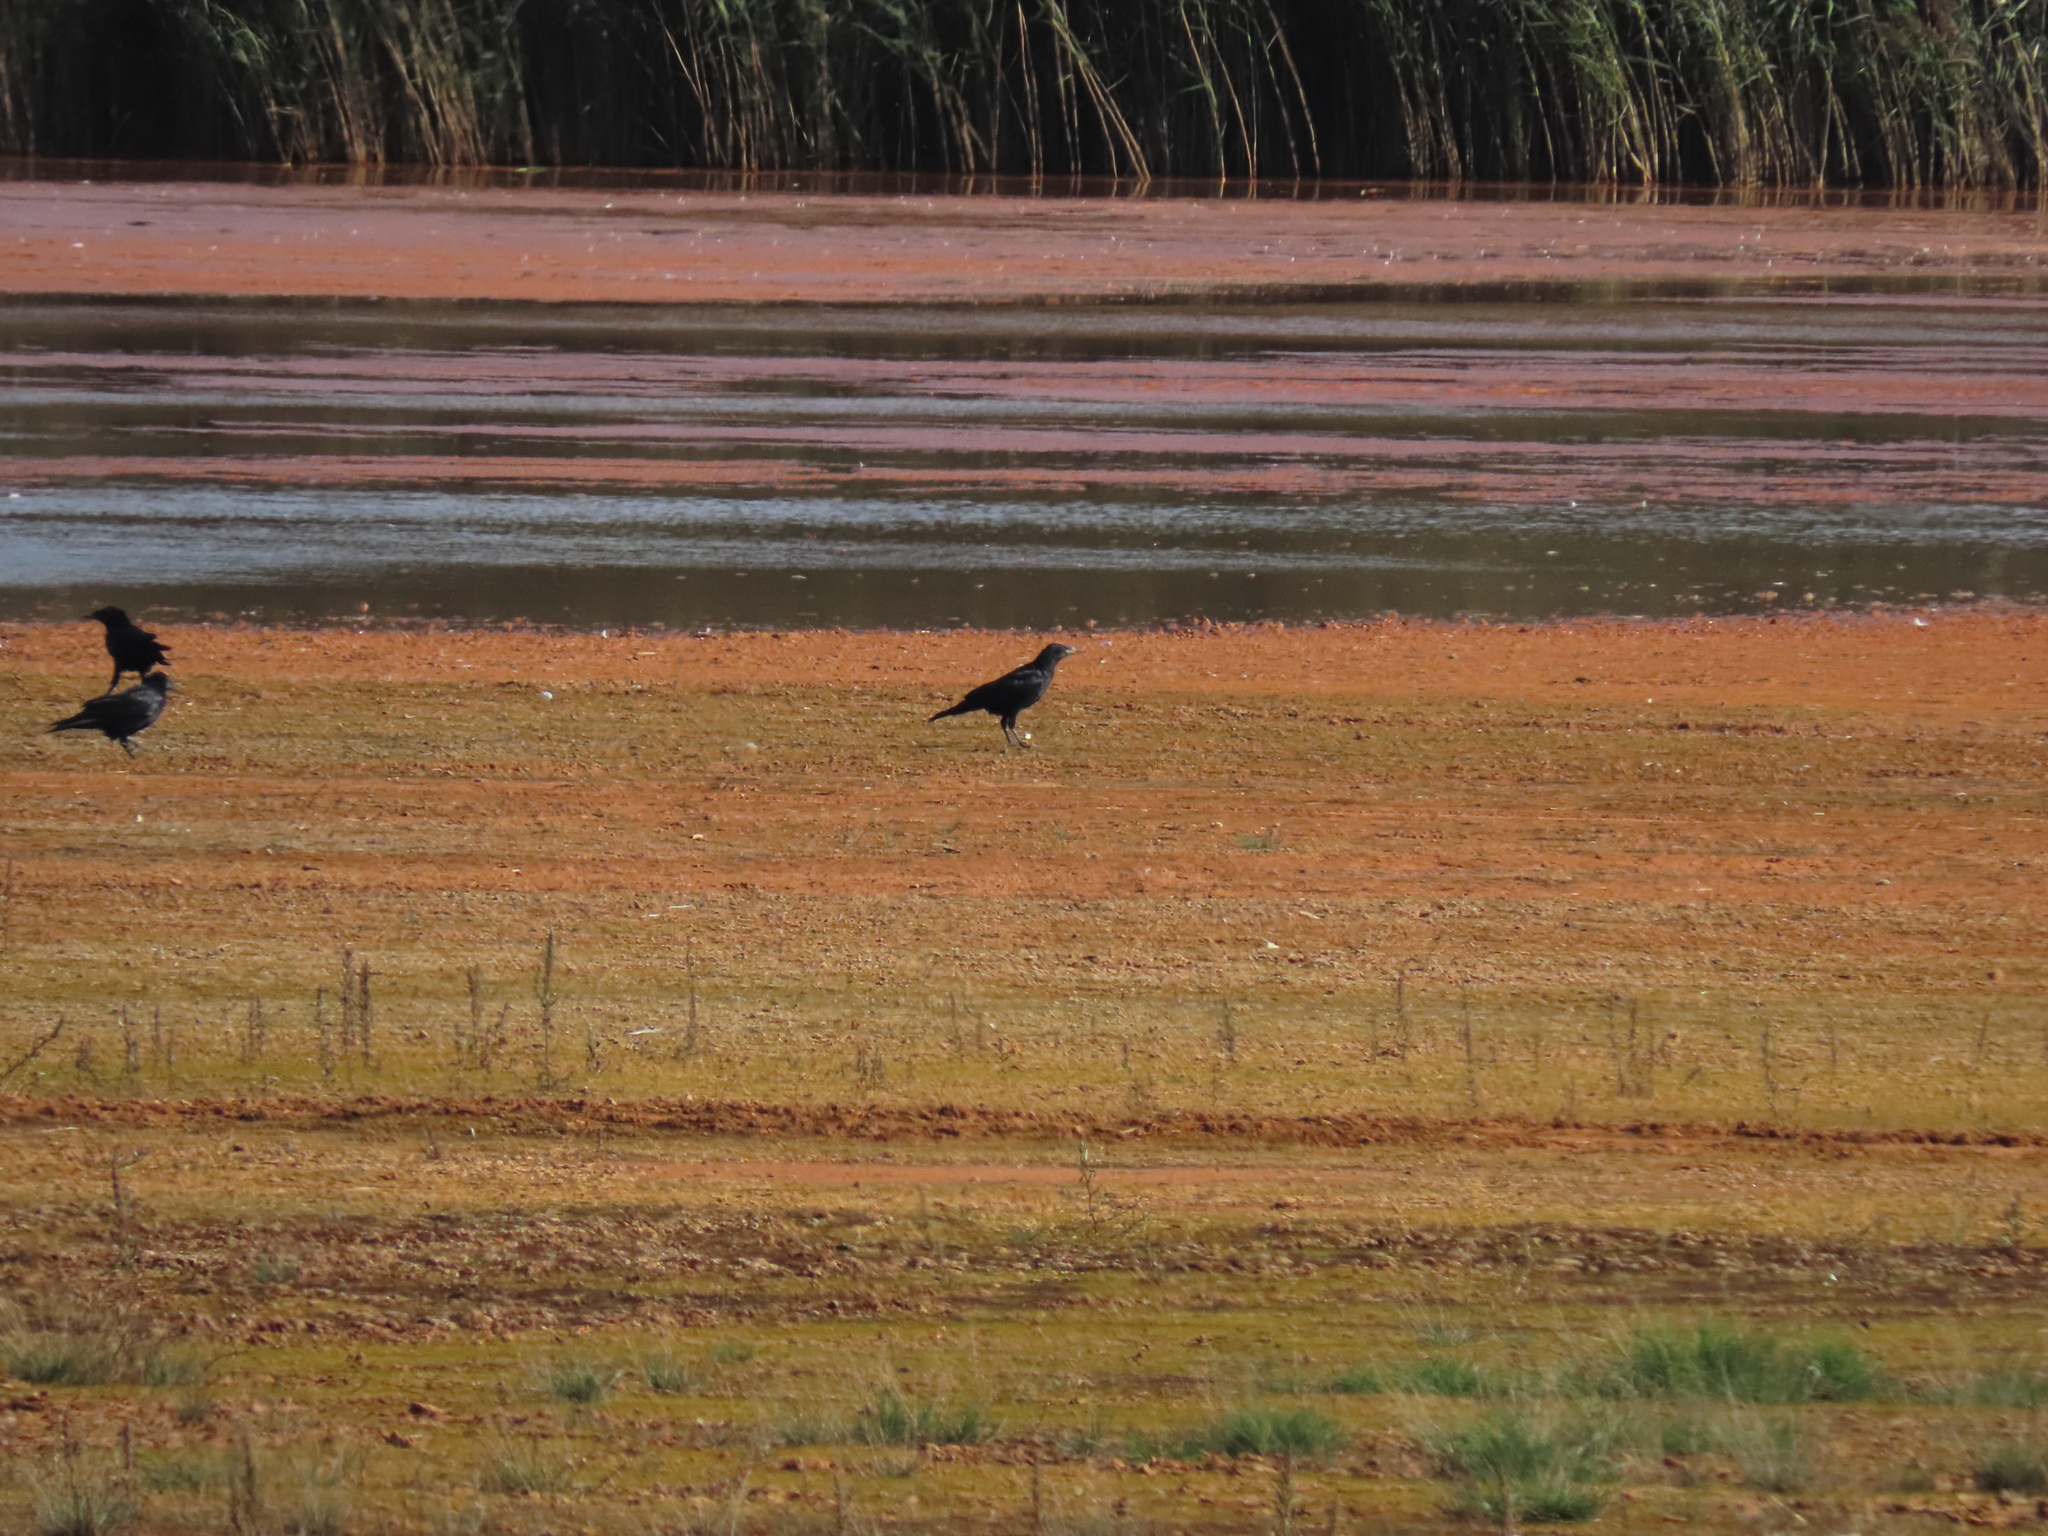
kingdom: Animalia
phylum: Chordata
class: Aves
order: Passeriformes
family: Corvidae
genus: Corvus
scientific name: Corvus frugilegus
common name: Rook
